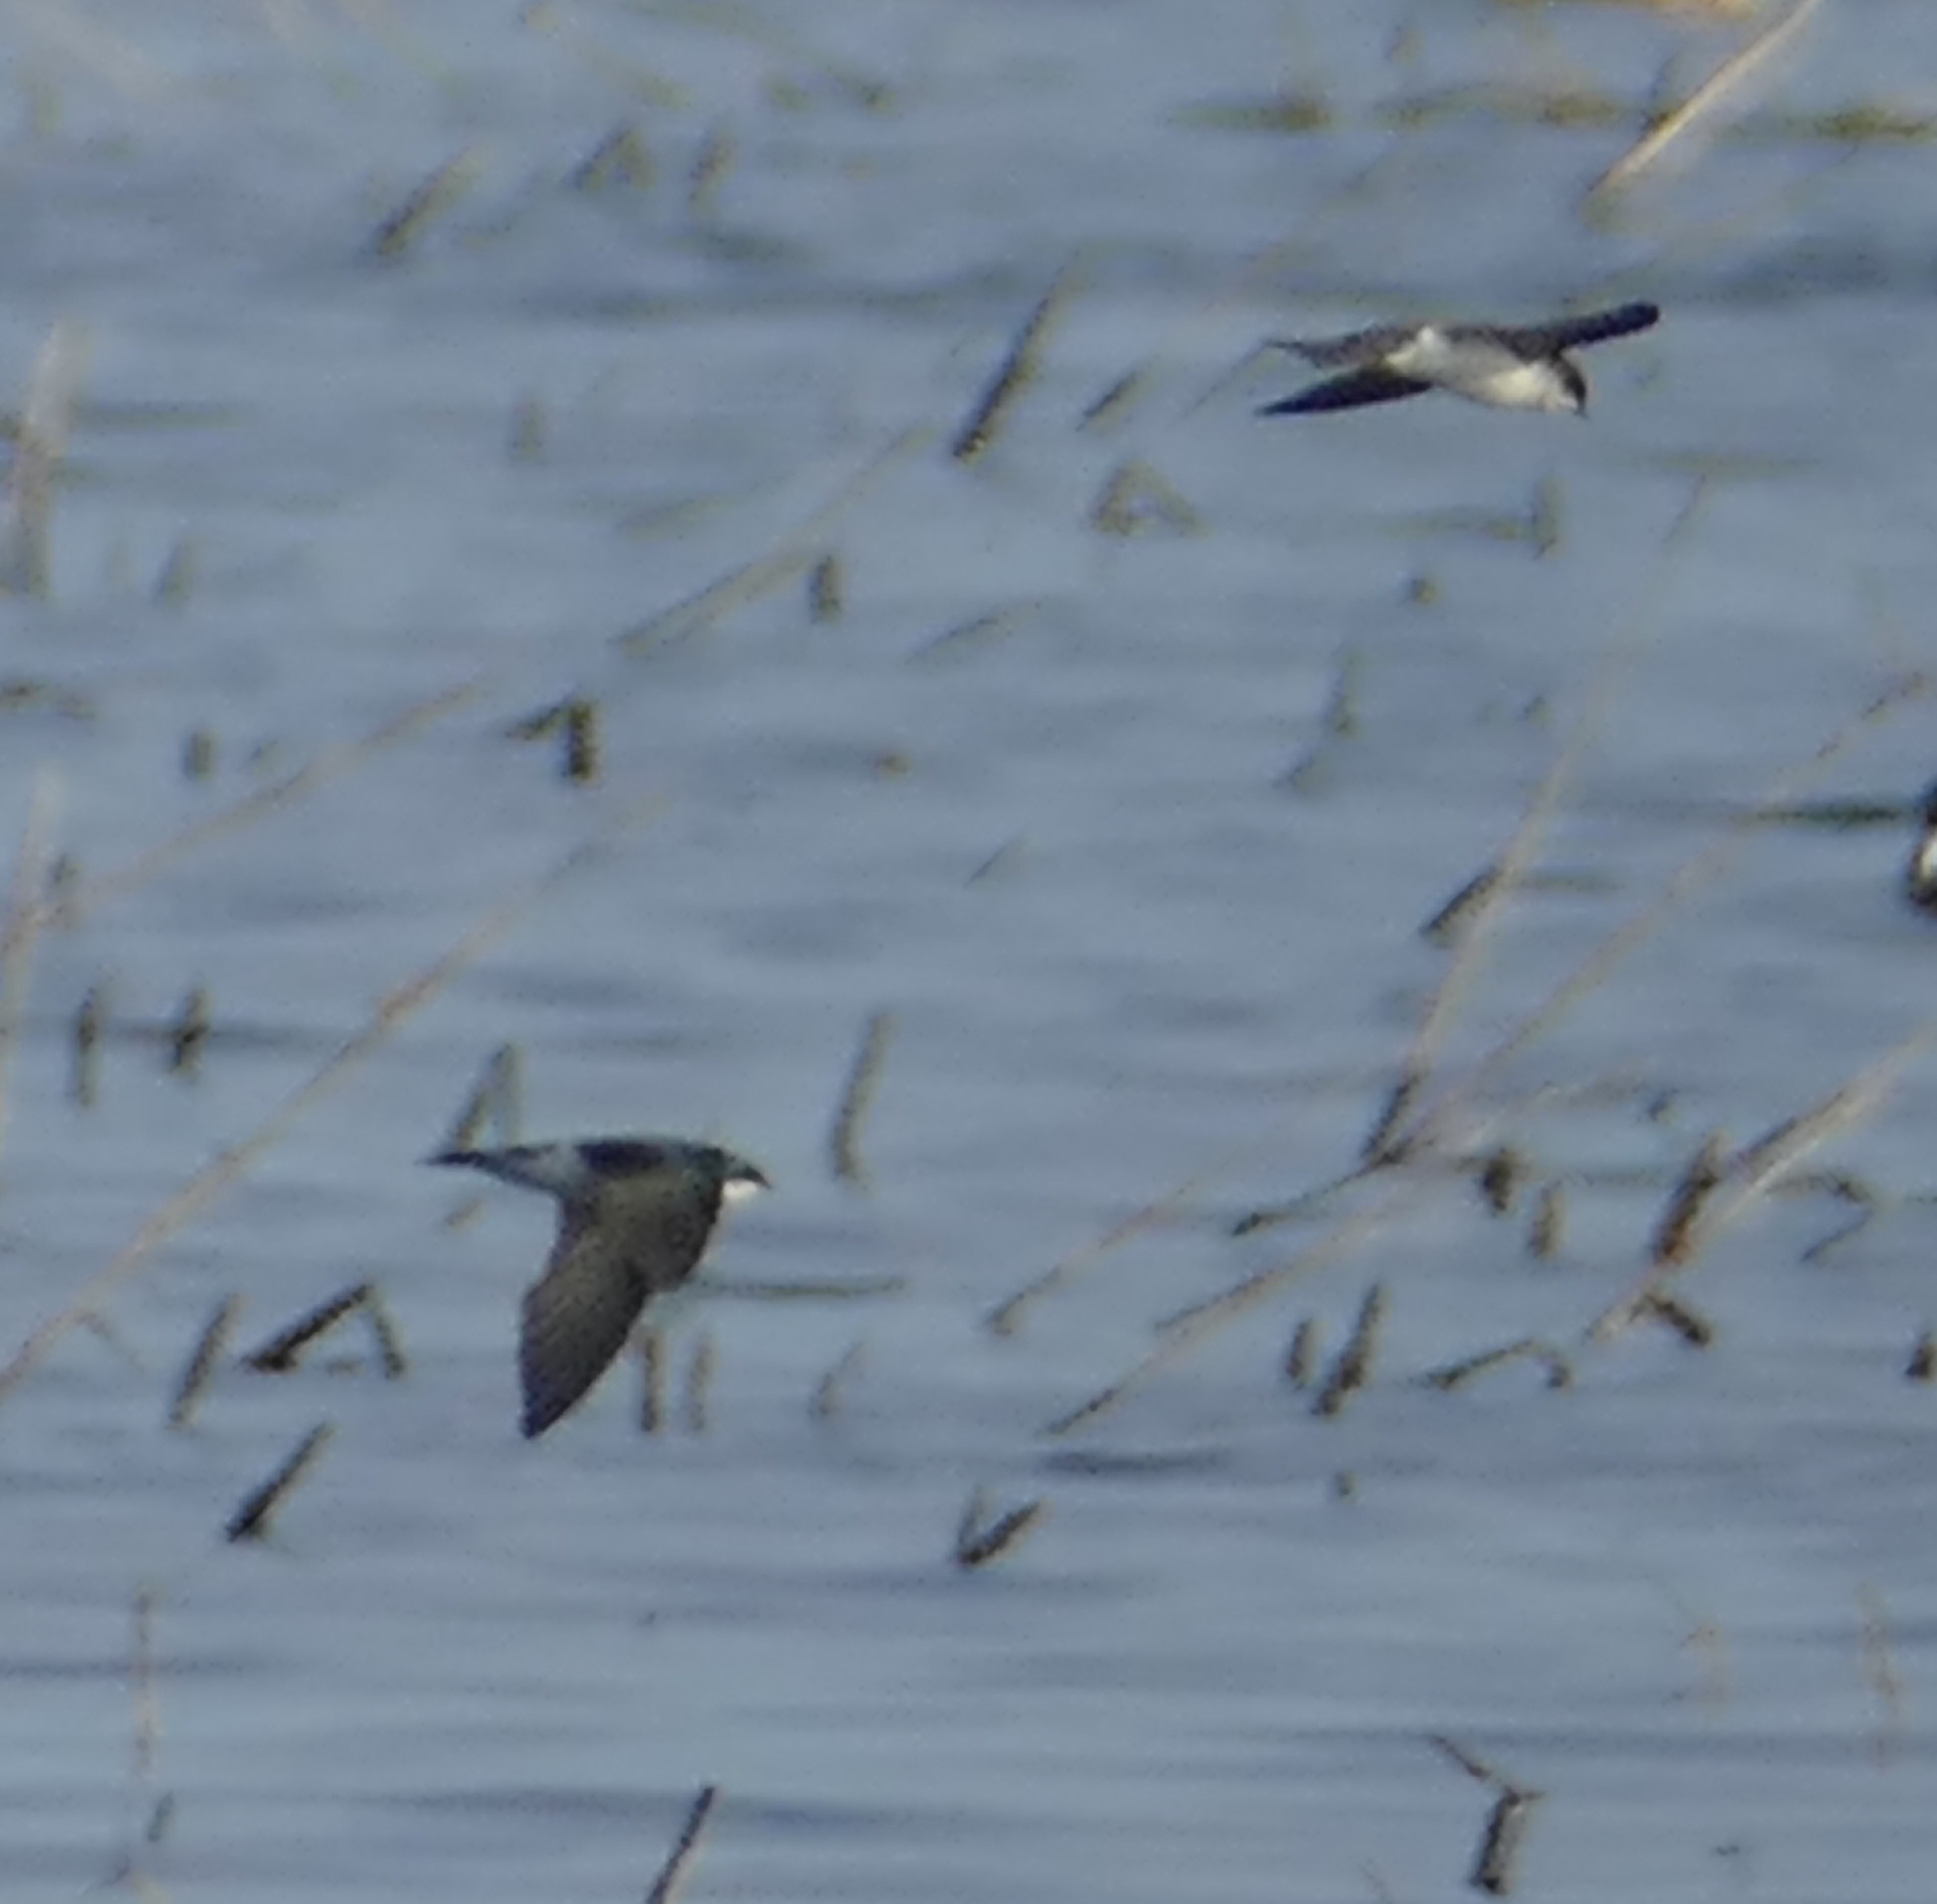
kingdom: Animalia
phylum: Chordata
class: Aves
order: Passeriformes
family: Hirundinidae
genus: Tachycineta
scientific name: Tachycineta bicolor
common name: Tree swallow
